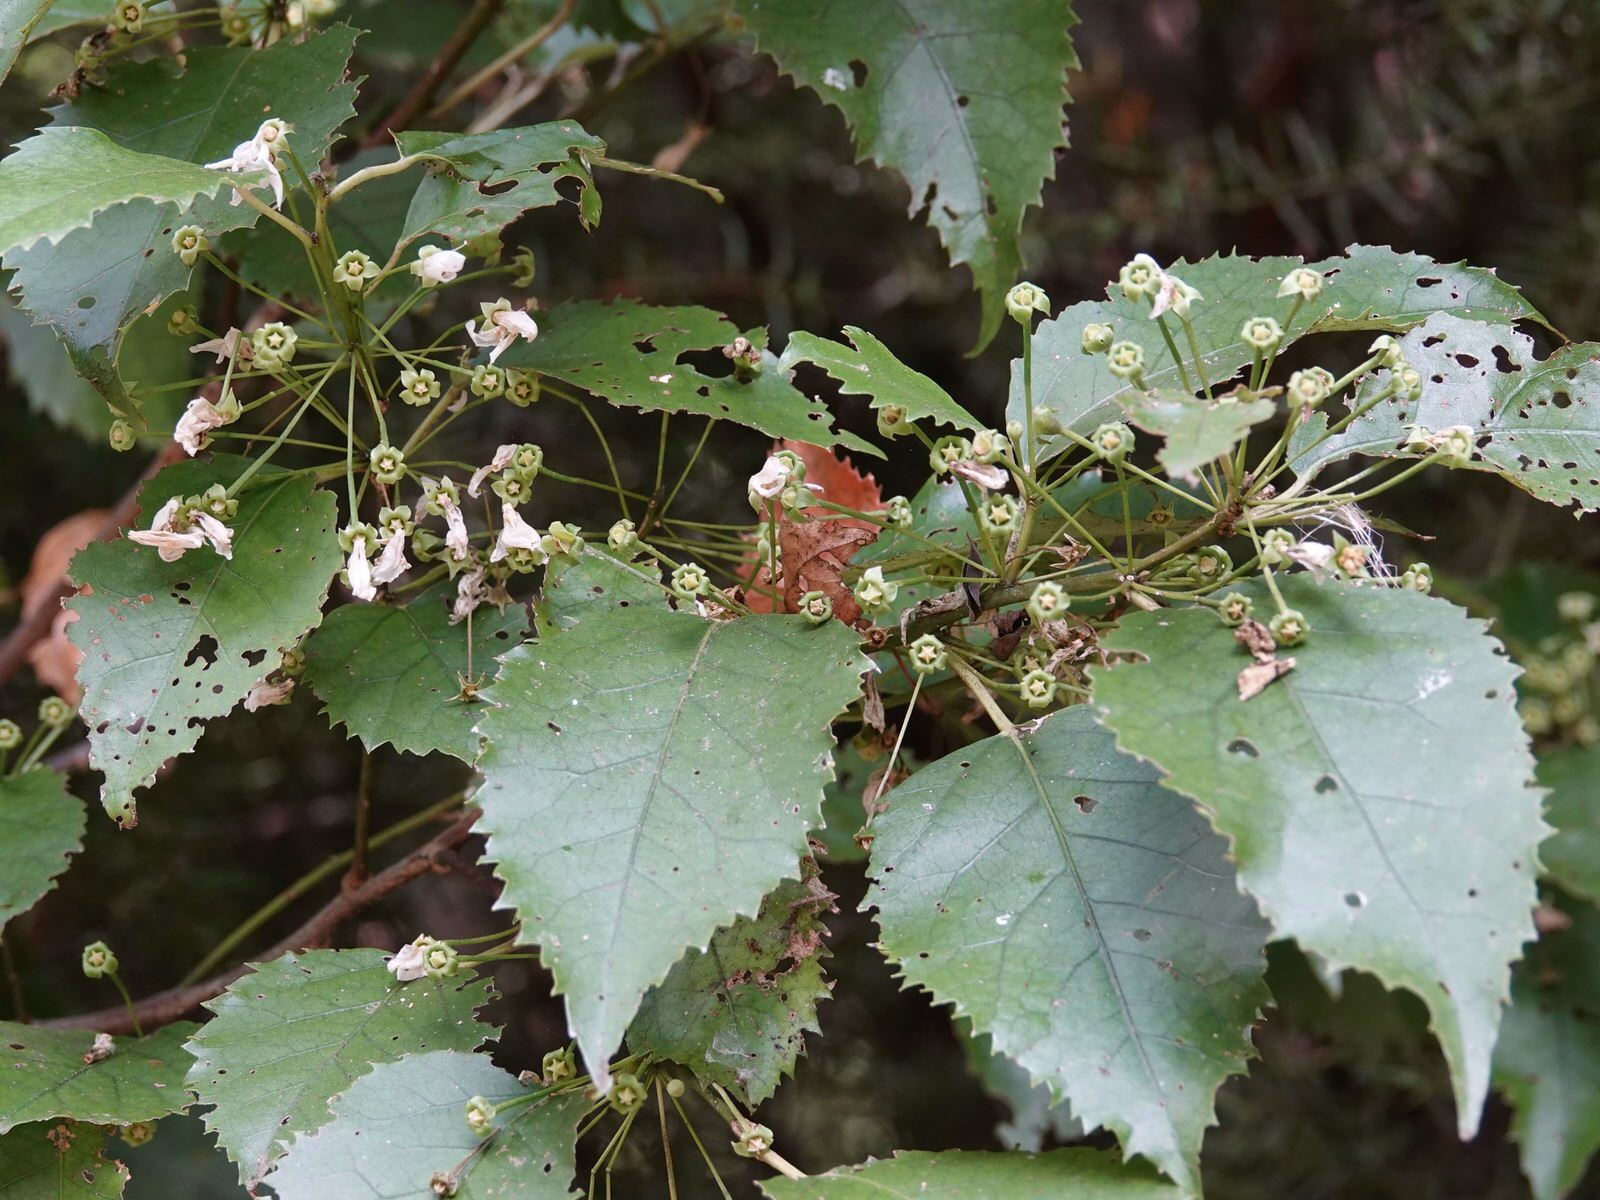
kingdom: Plantae
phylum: Tracheophyta
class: Magnoliopsida
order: Malvales
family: Malvaceae
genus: Hoheria
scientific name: Hoheria populnea
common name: Lacebark
